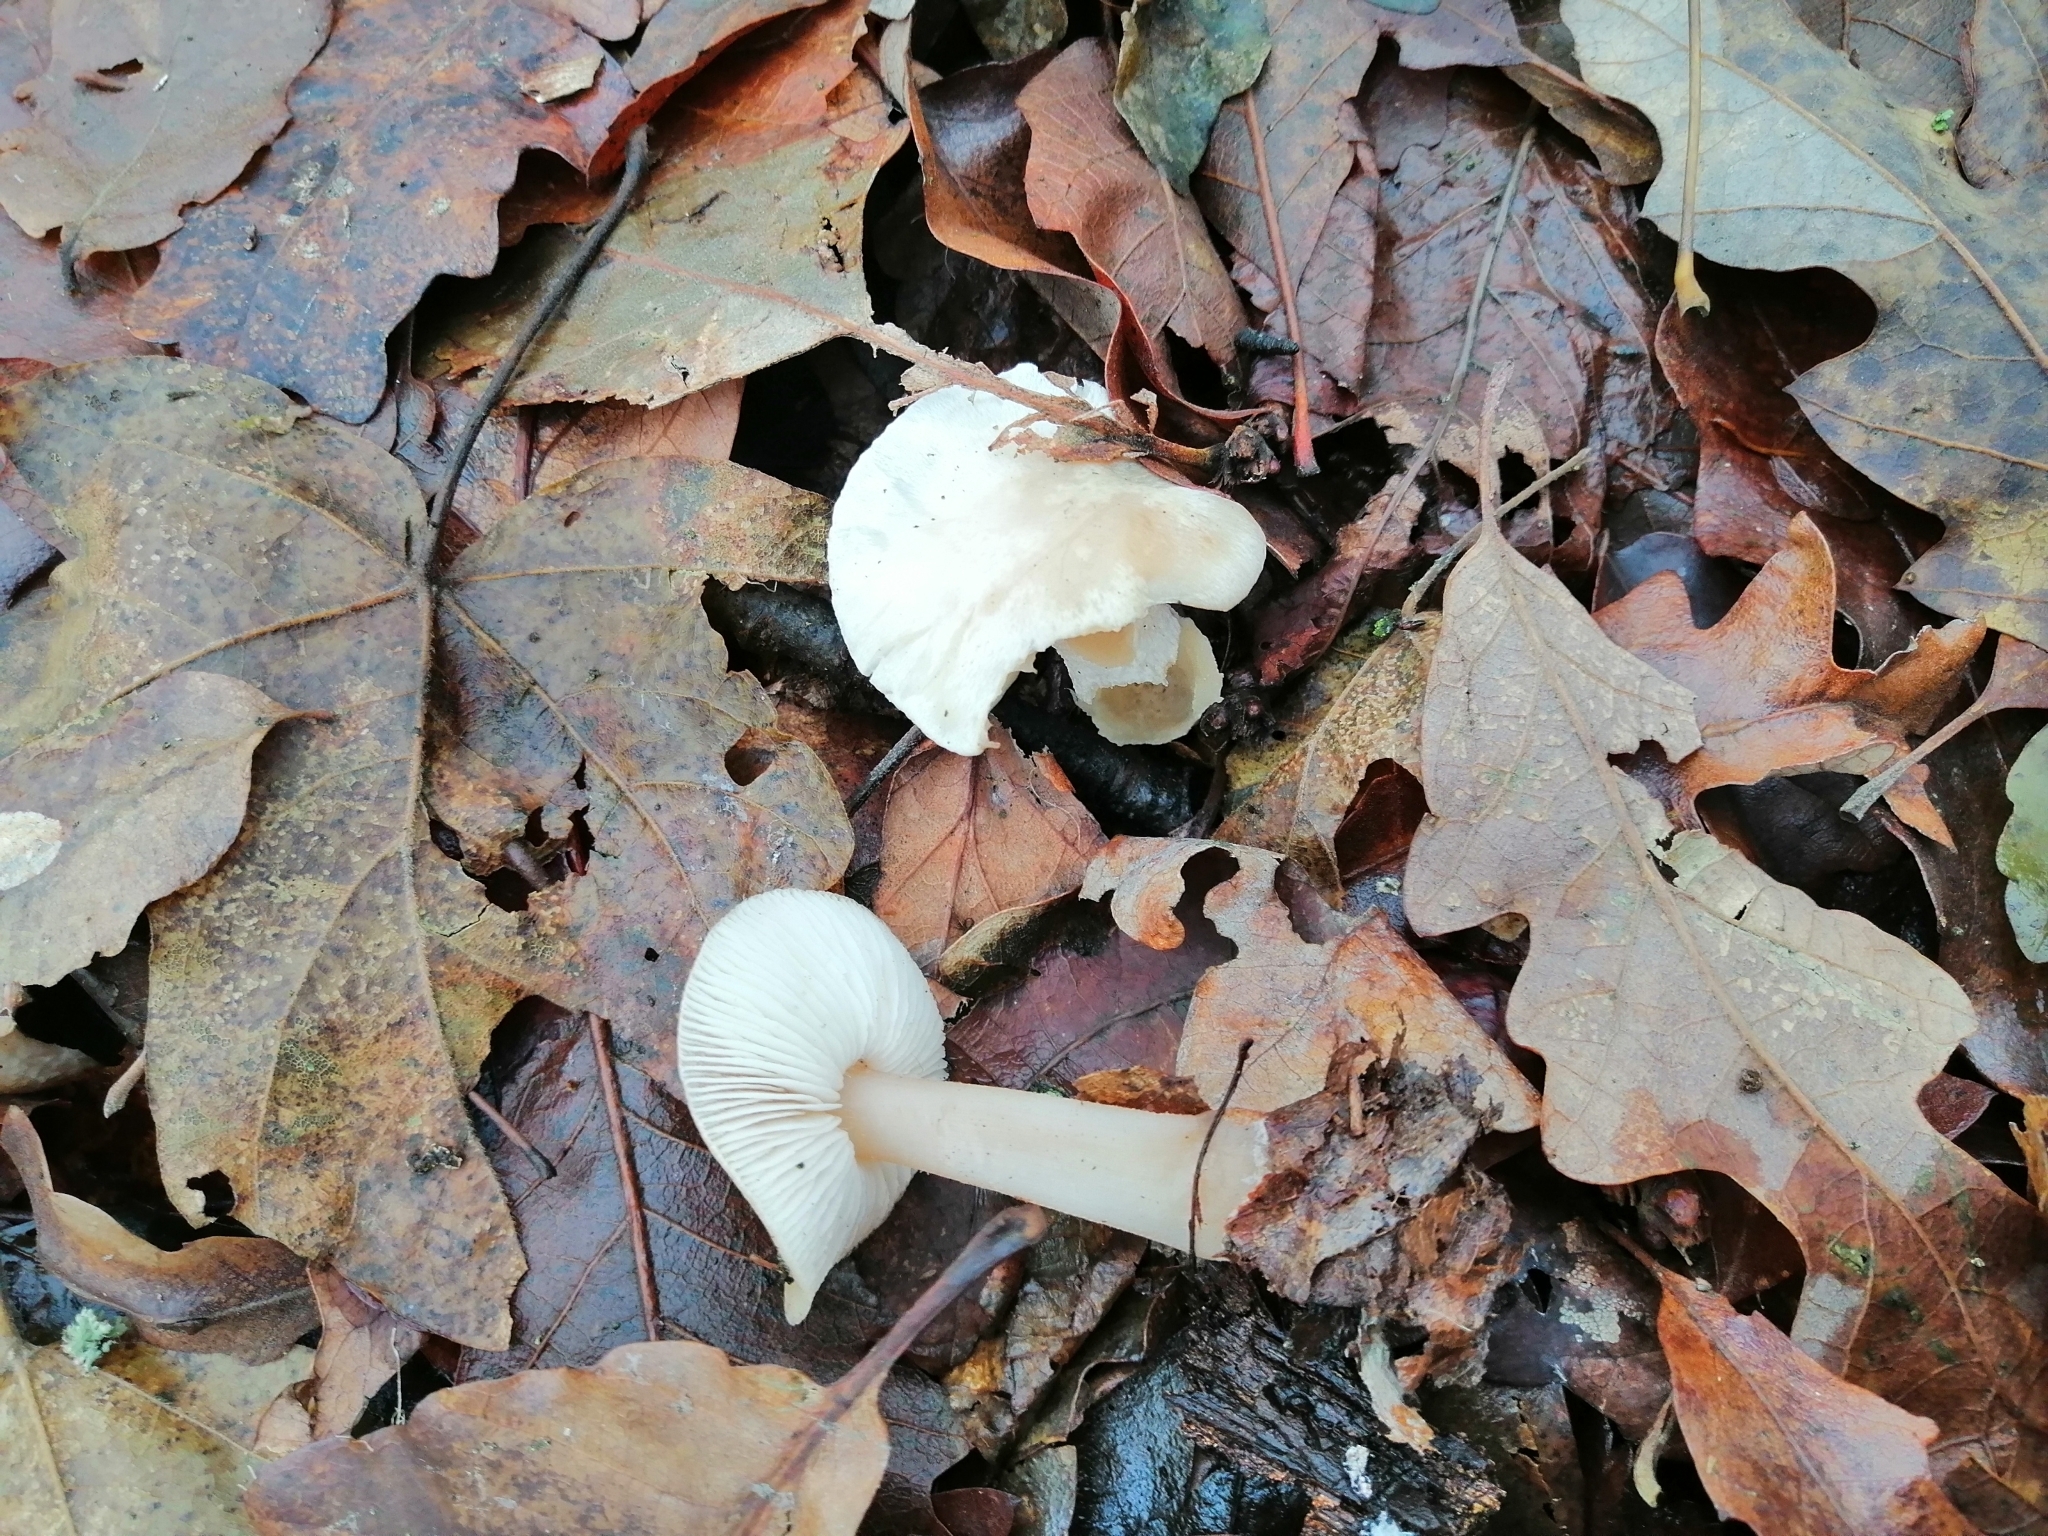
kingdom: Fungi
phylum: Basidiomycota
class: Agaricomycetes
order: Agaricales
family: Omphalotaceae
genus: Rhodocollybia
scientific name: Rhodocollybia butyracea
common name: Butter cap
